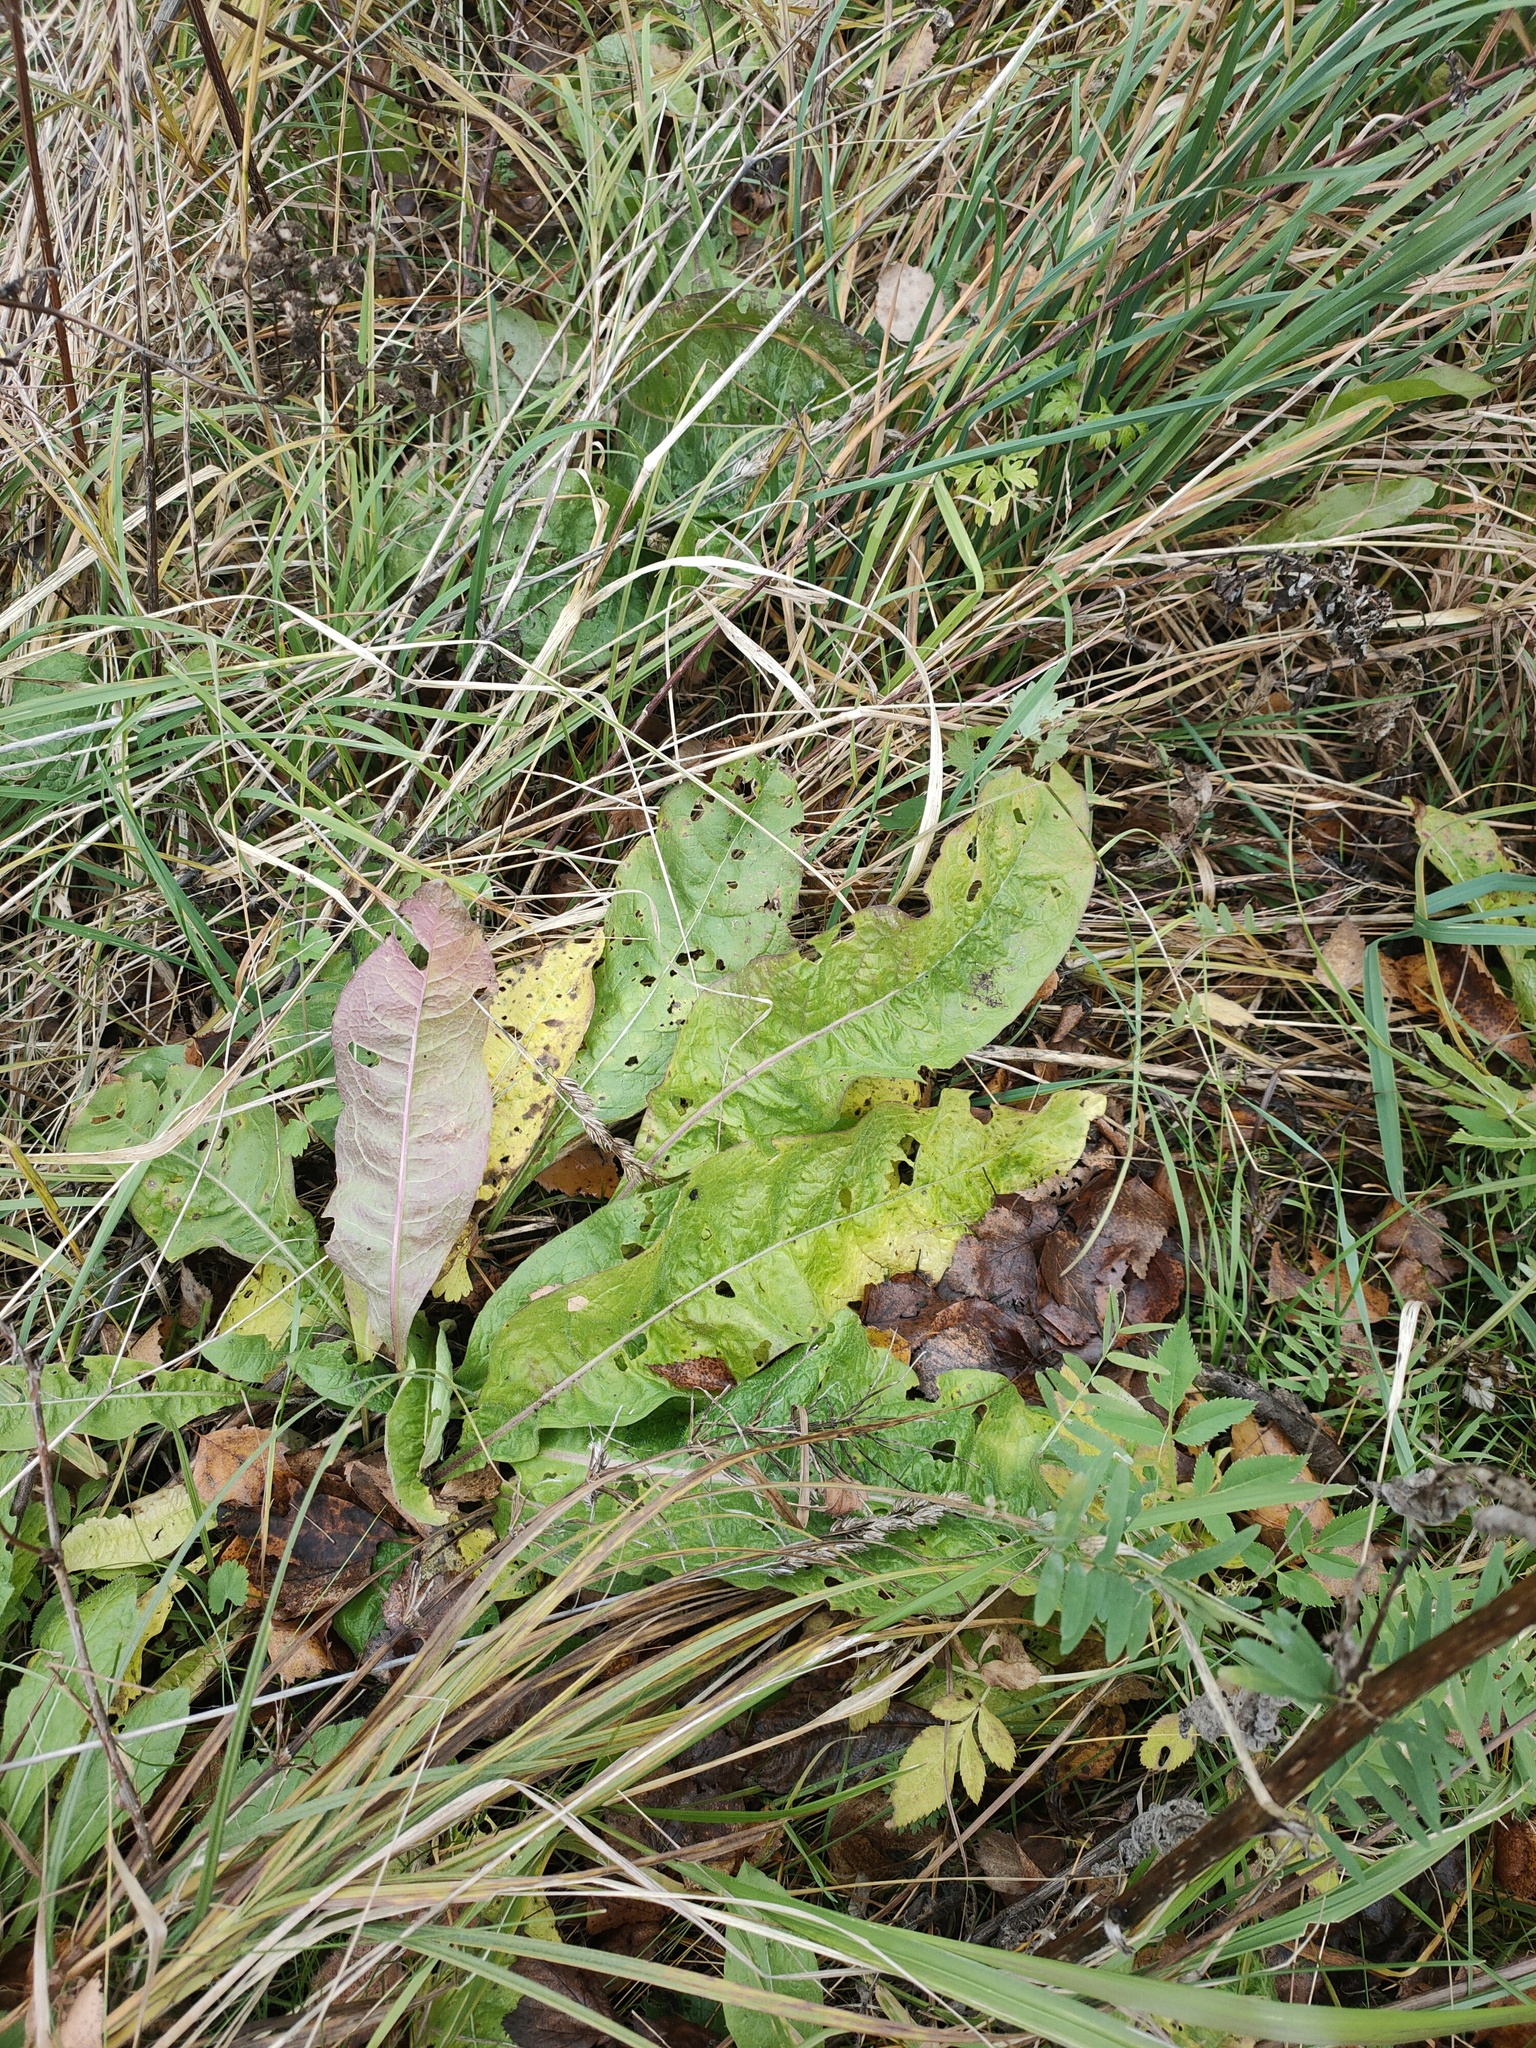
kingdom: Plantae
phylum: Tracheophyta
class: Magnoliopsida
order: Asterales
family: Asteraceae
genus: Centaurea
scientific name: Centaurea phrygia
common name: Wig knapweed
